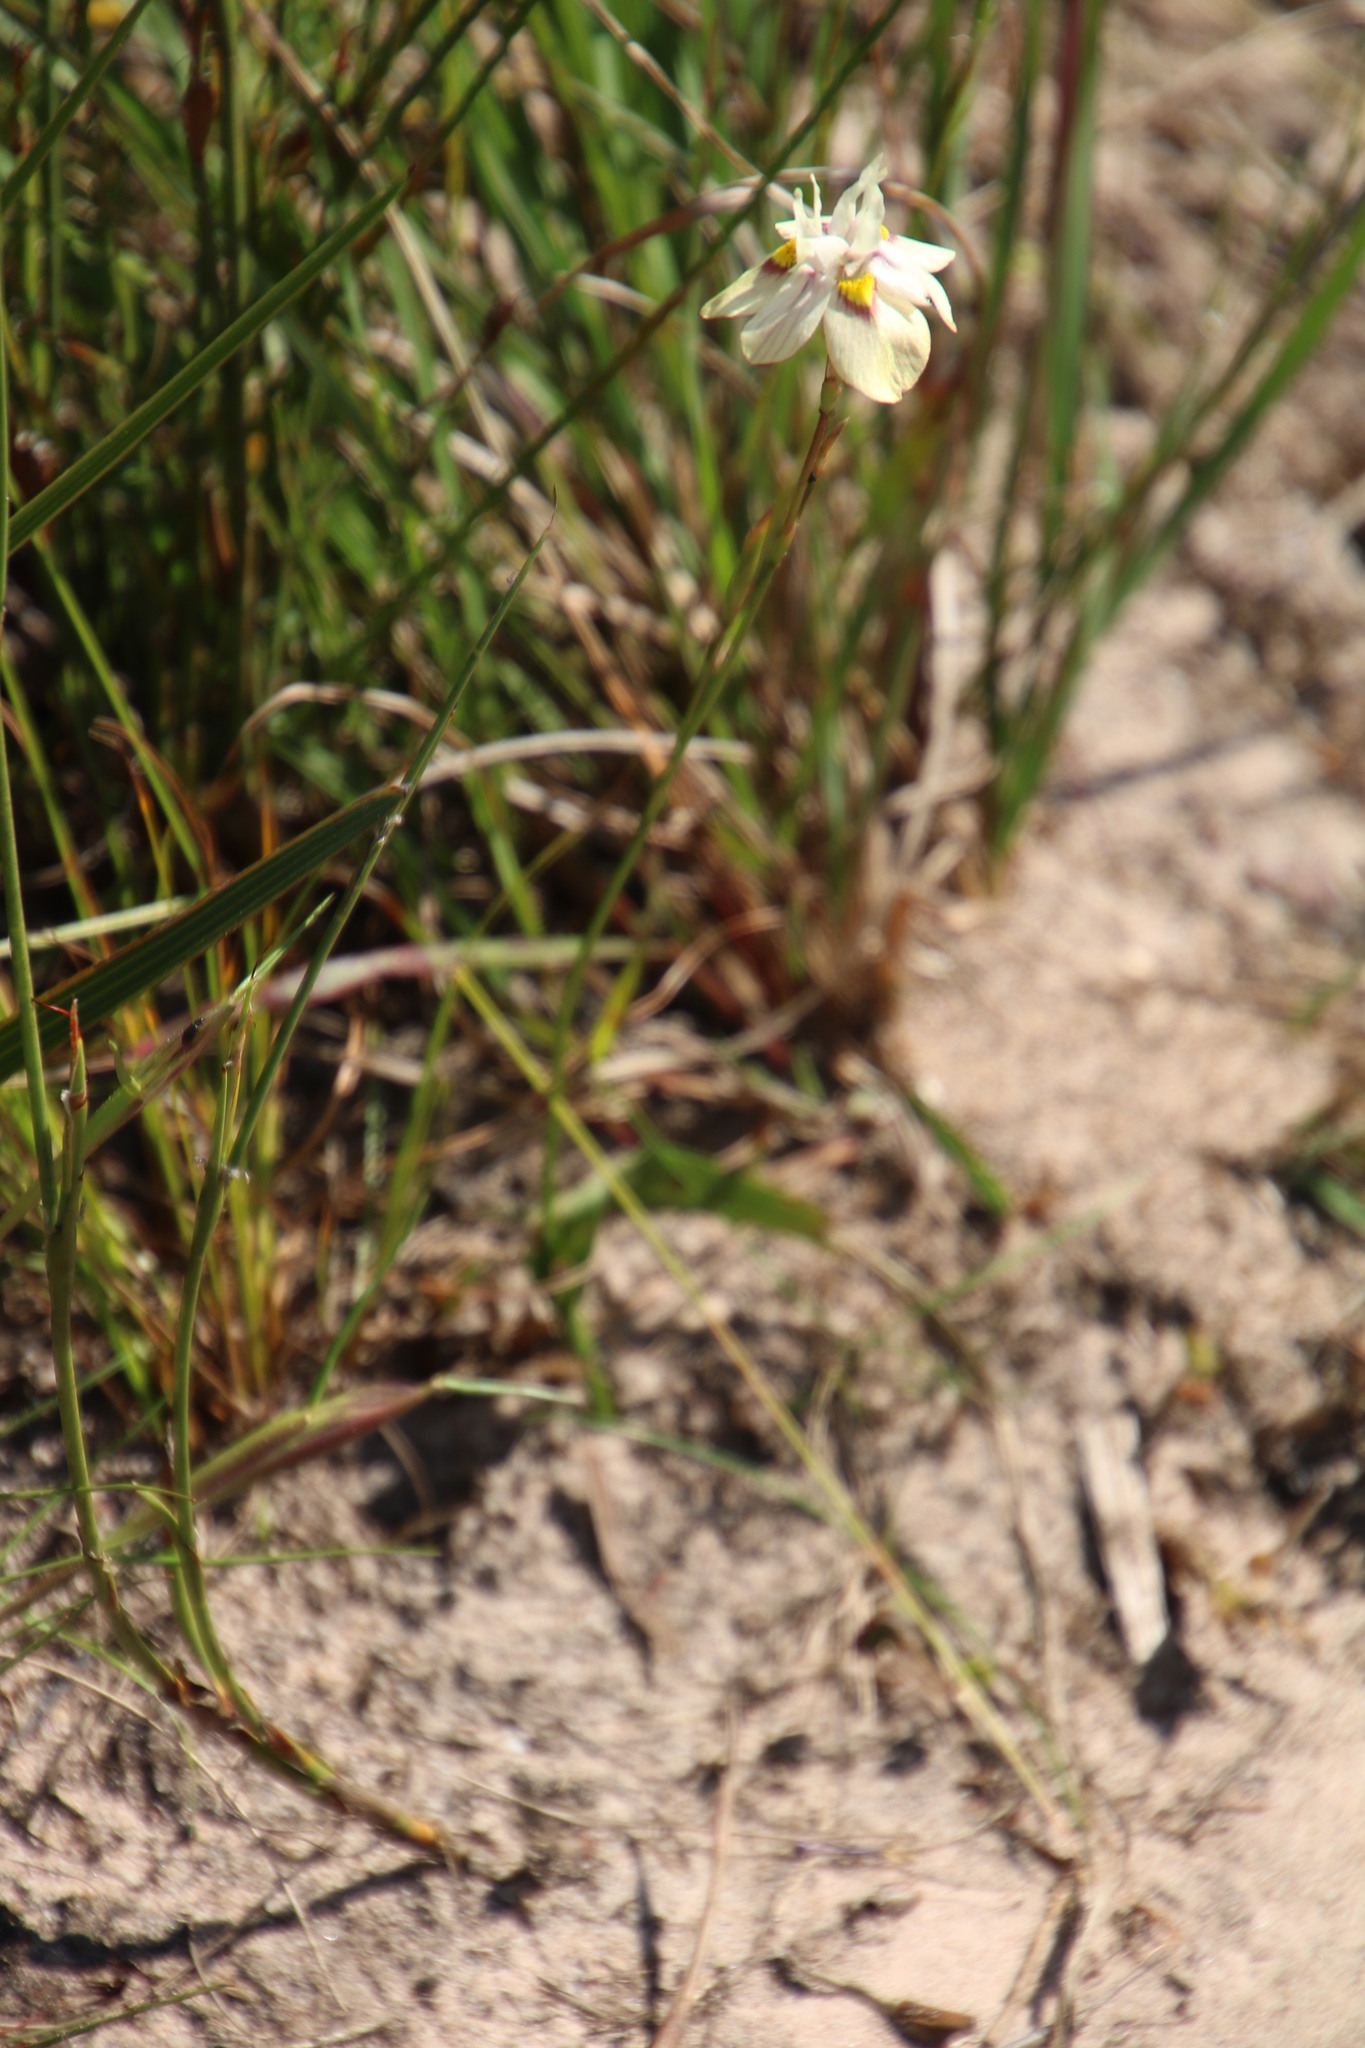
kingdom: Plantae
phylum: Tracheophyta
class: Liliopsida
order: Asparagales
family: Iridaceae
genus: Moraea
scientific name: Moraea gawleri
